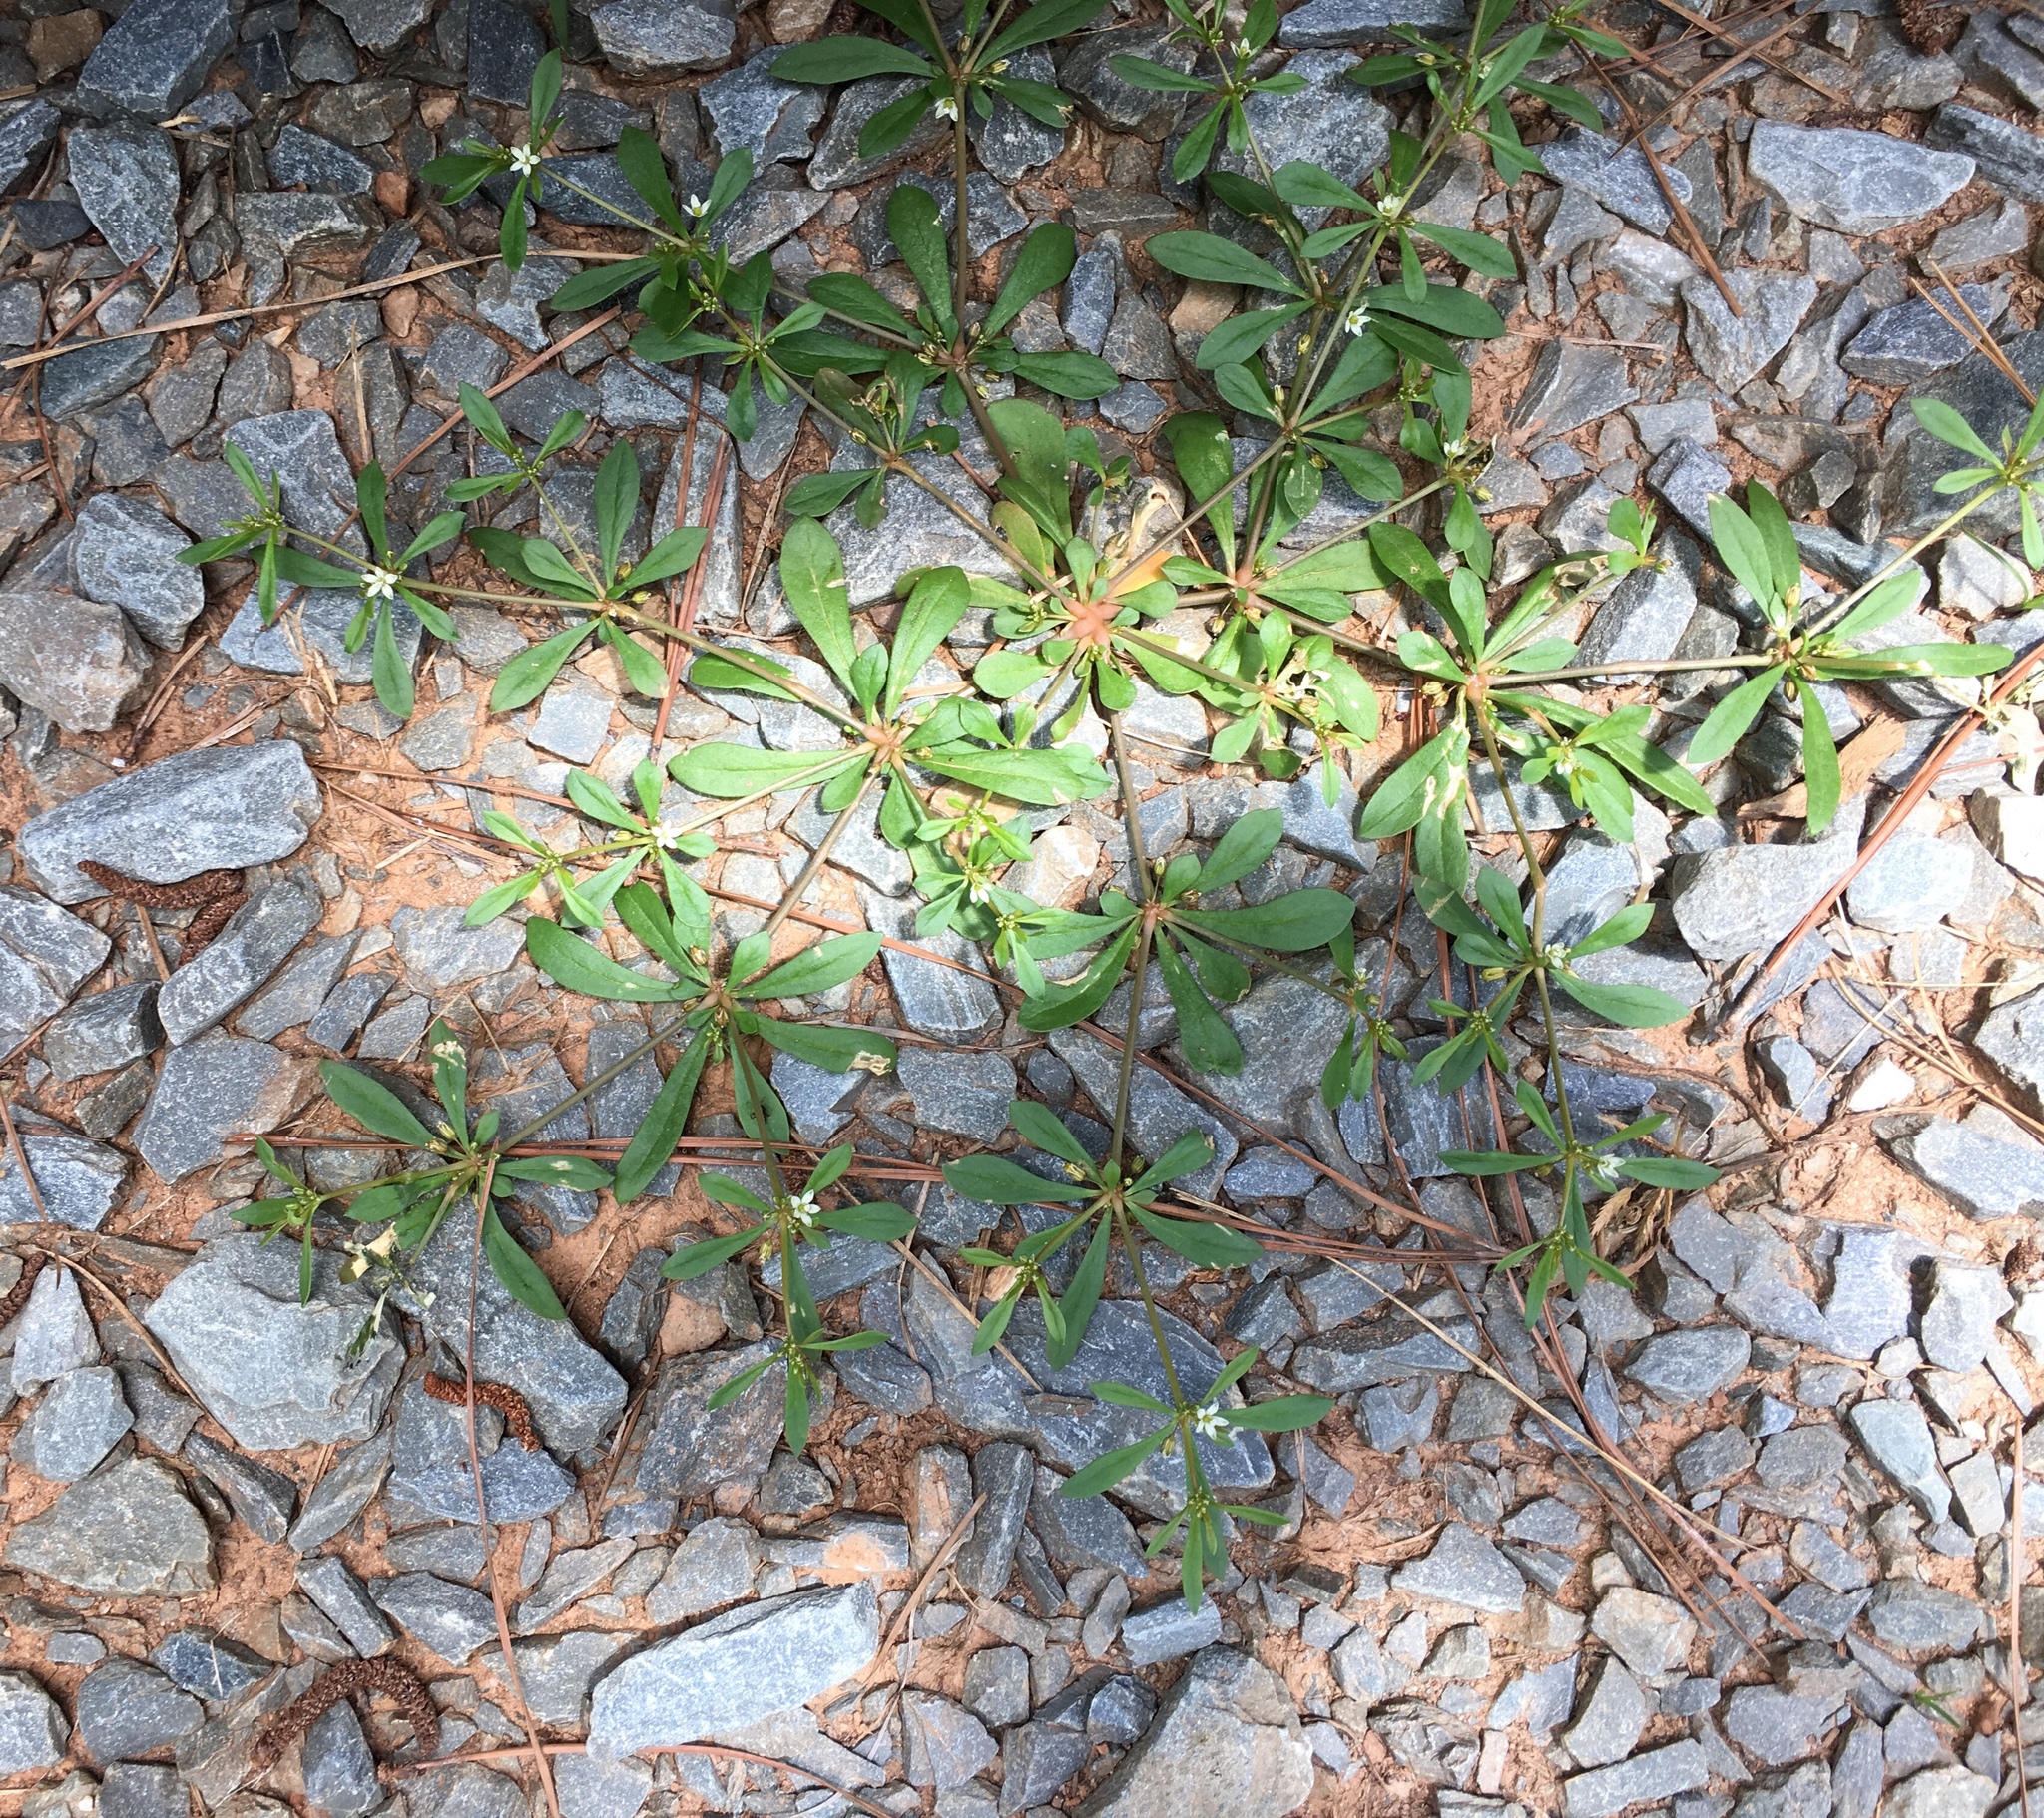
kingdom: Plantae
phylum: Tracheophyta
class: Magnoliopsida
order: Caryophyllales
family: Molluginaceae
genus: Mollugo
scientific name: Mollugo verticillata
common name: Green carpetweed
